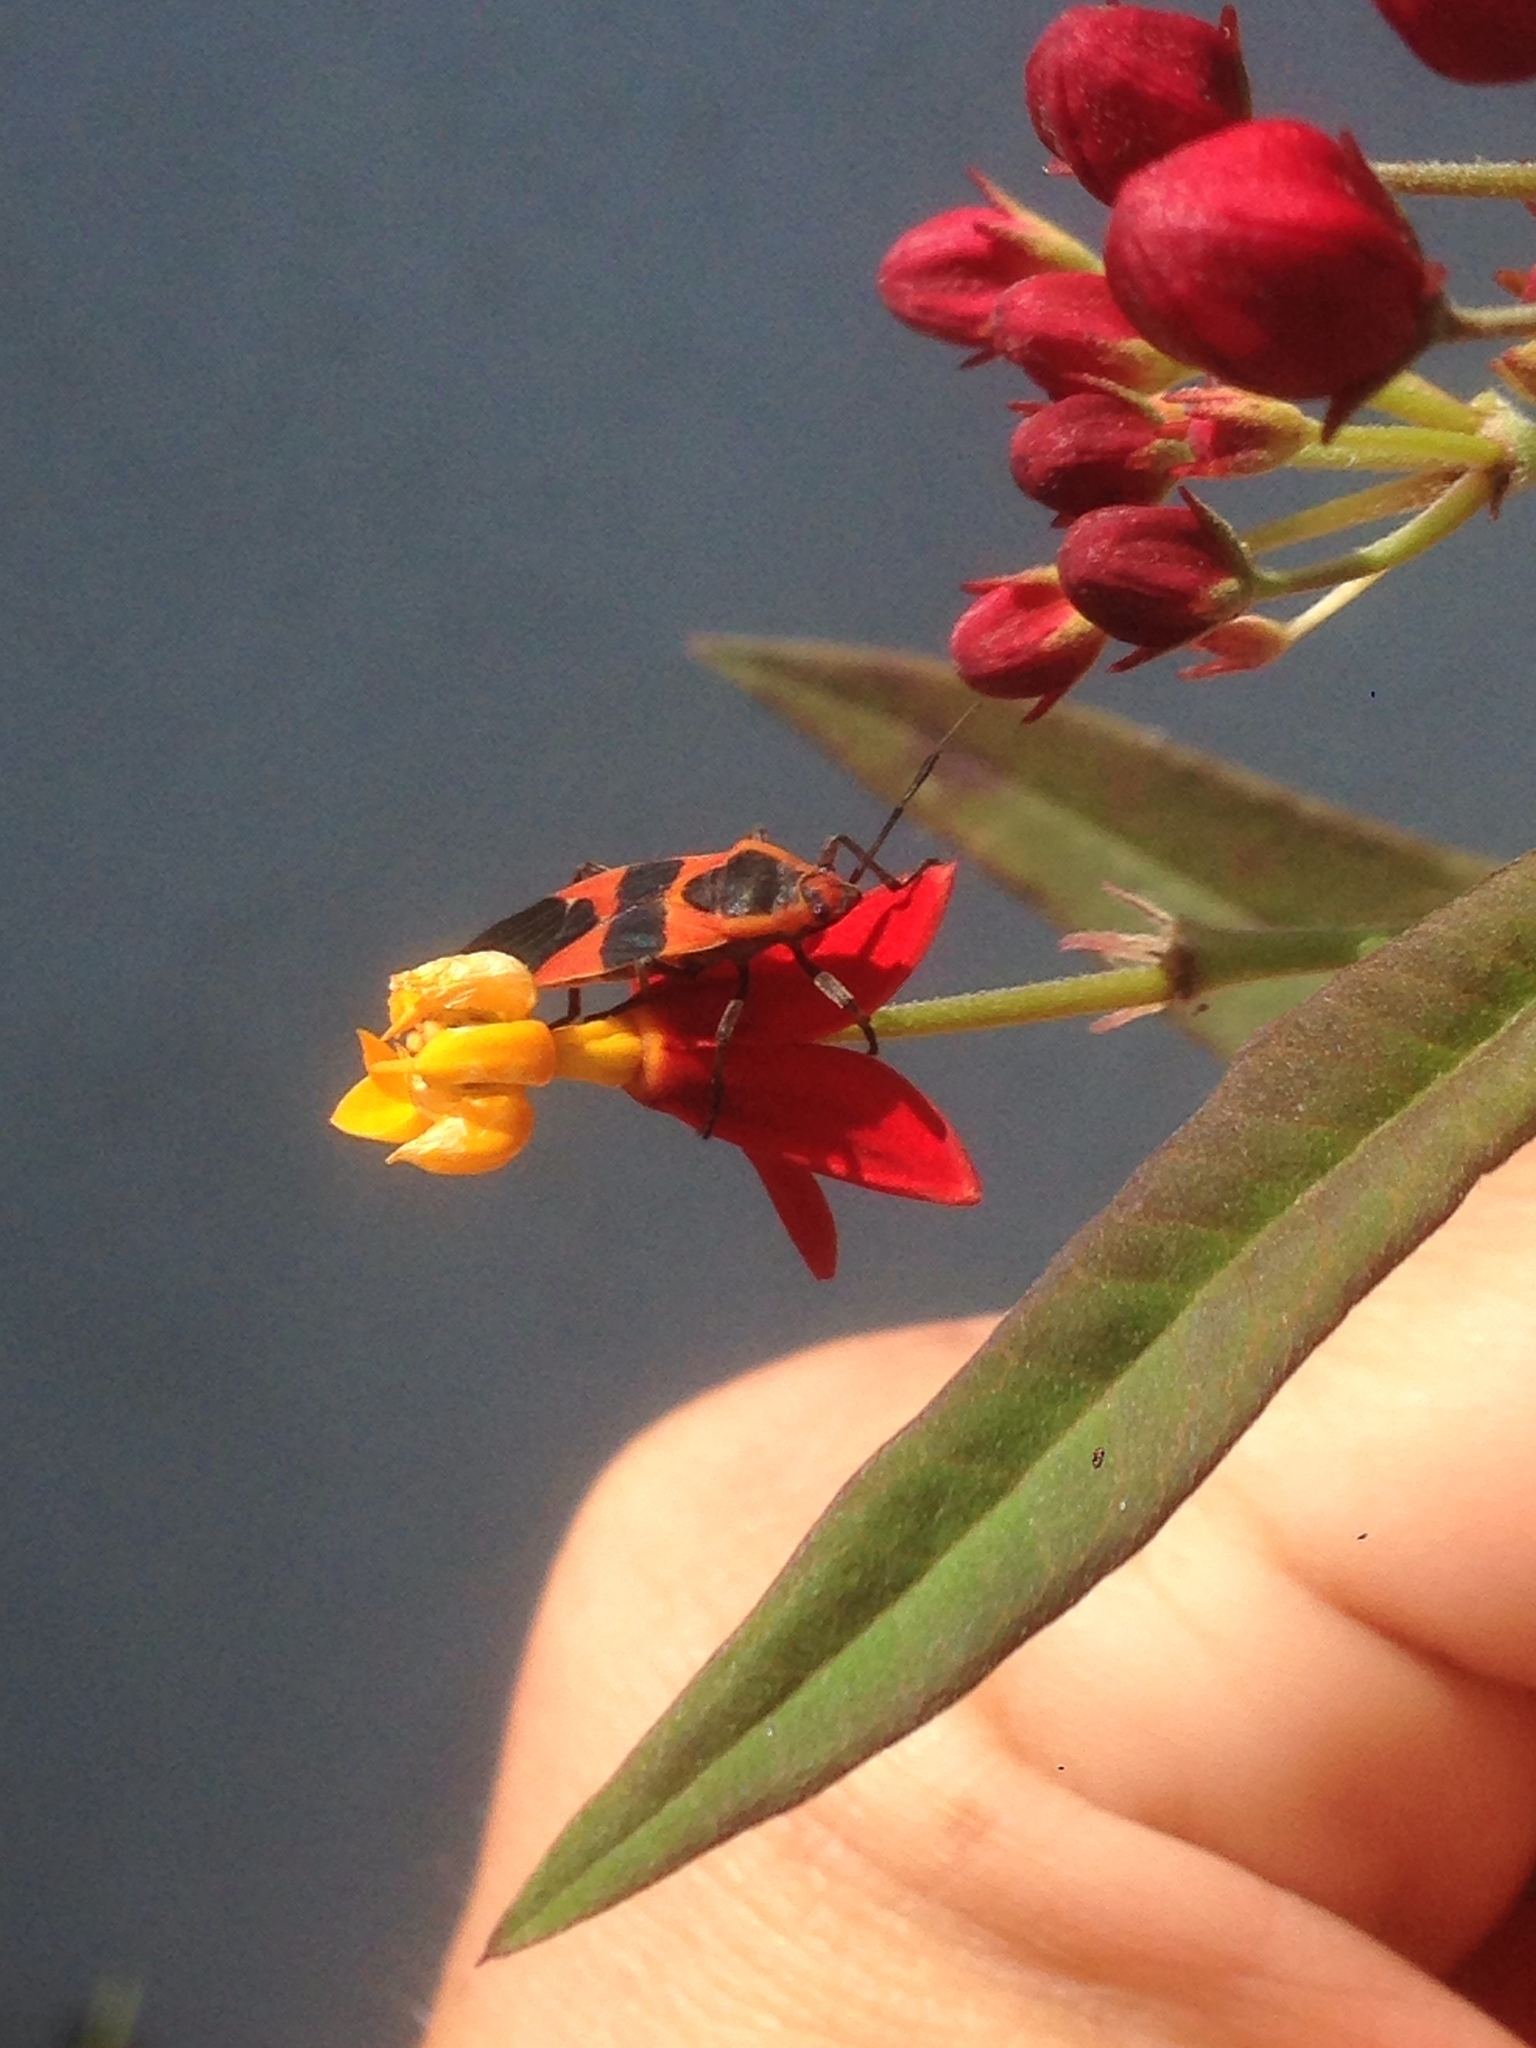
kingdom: Animalia
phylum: Arthropoda
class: Insecta
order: Hemiptera
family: Lygaeidae
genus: Oncopeltus
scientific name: Oncopeltus fasciatus
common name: Large milkweed bug
